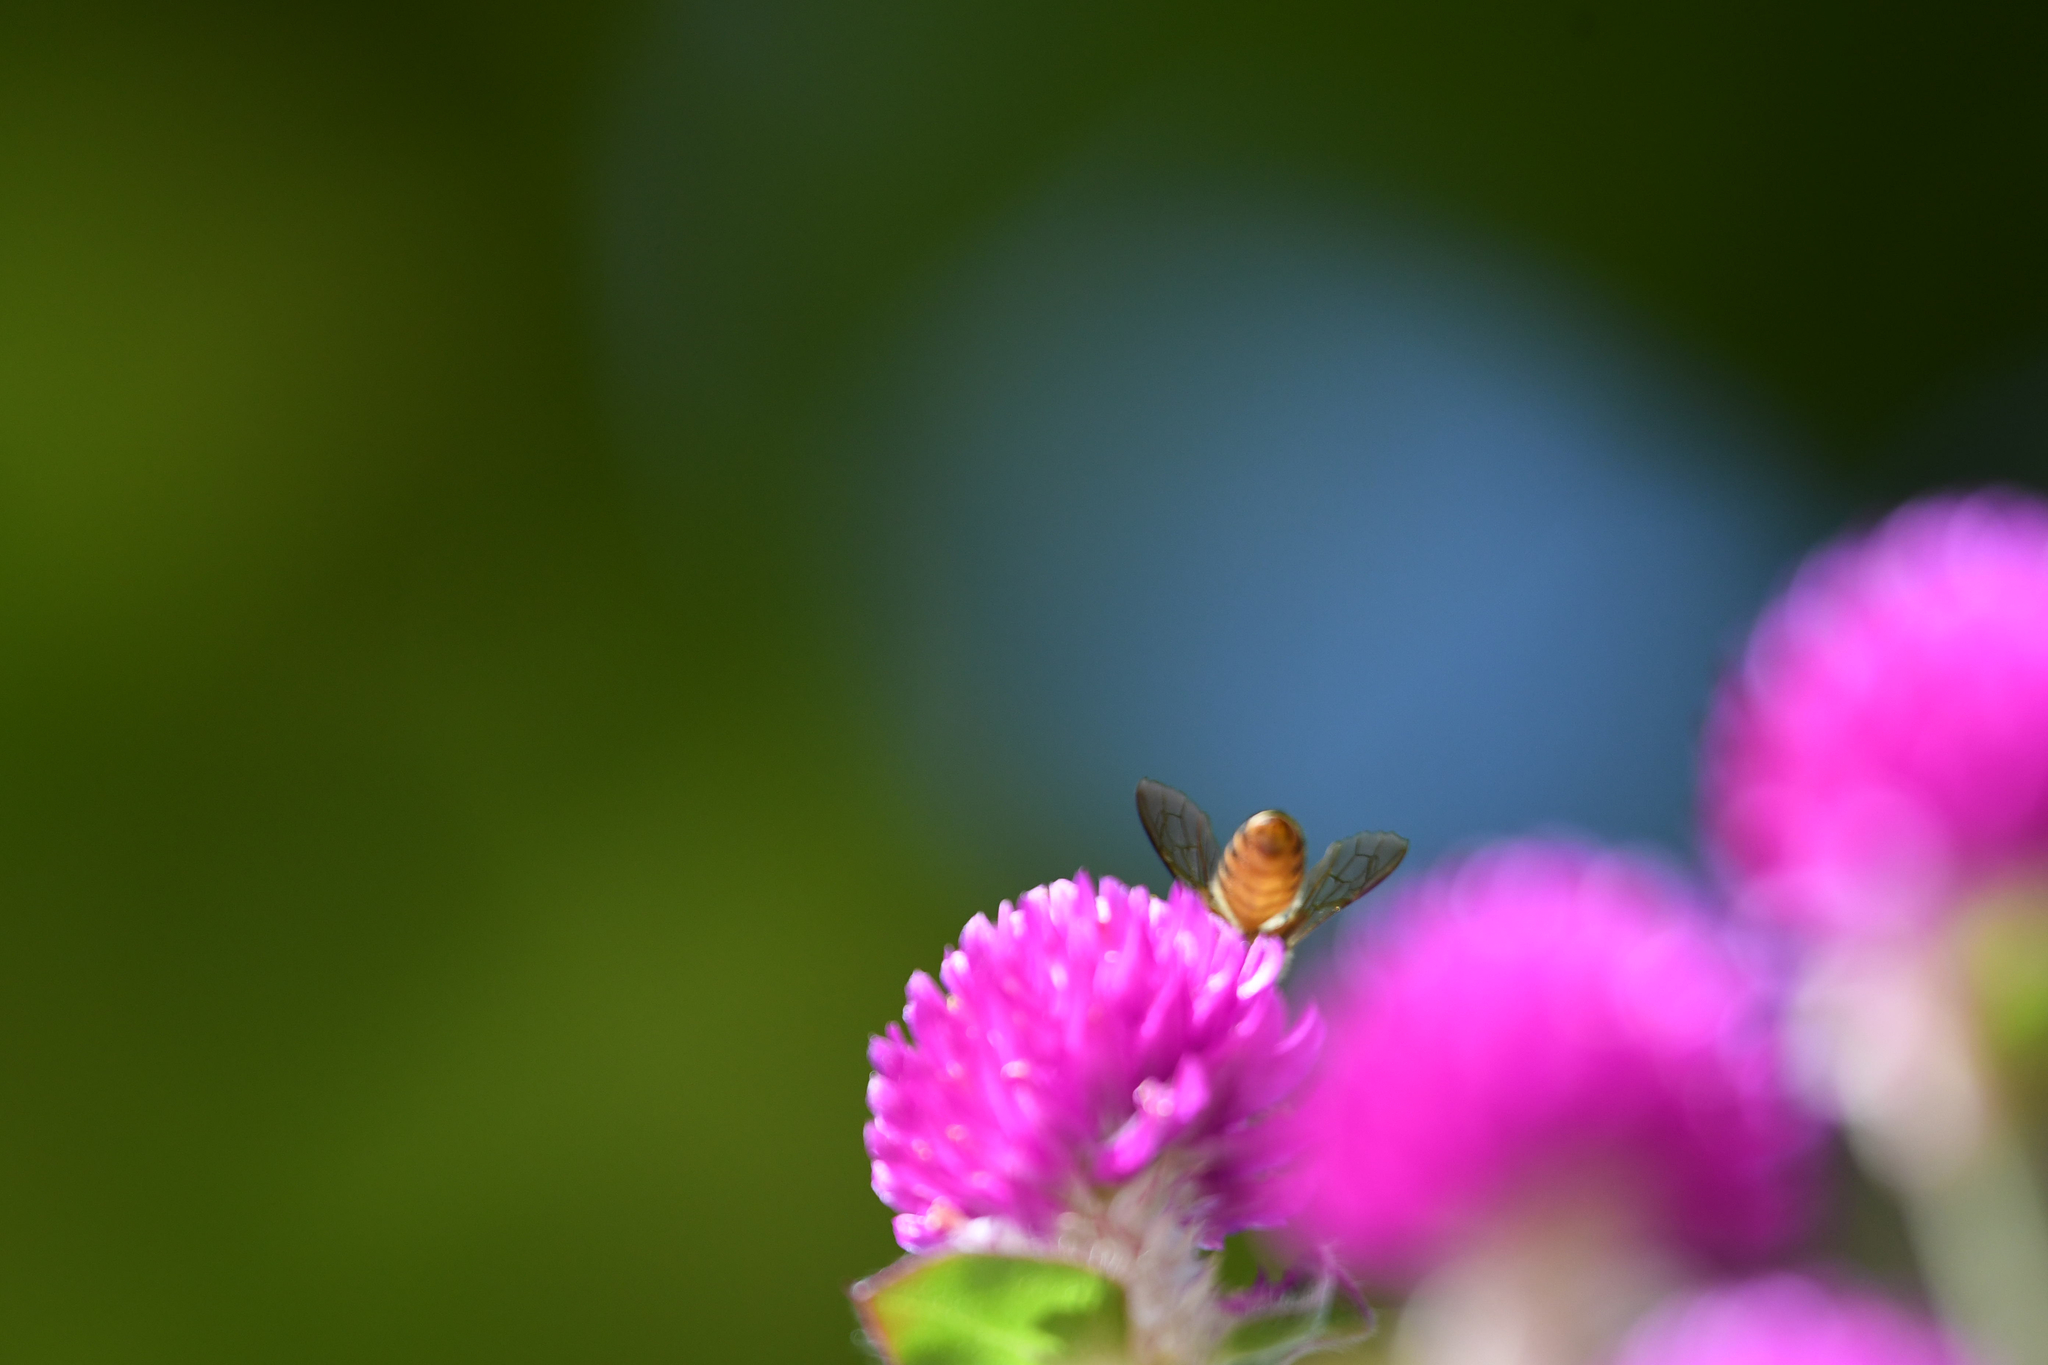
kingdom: Animalia
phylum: Arthropoda
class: Insecta
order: Hymenoptera
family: Apidae
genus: Apis
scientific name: Apis
